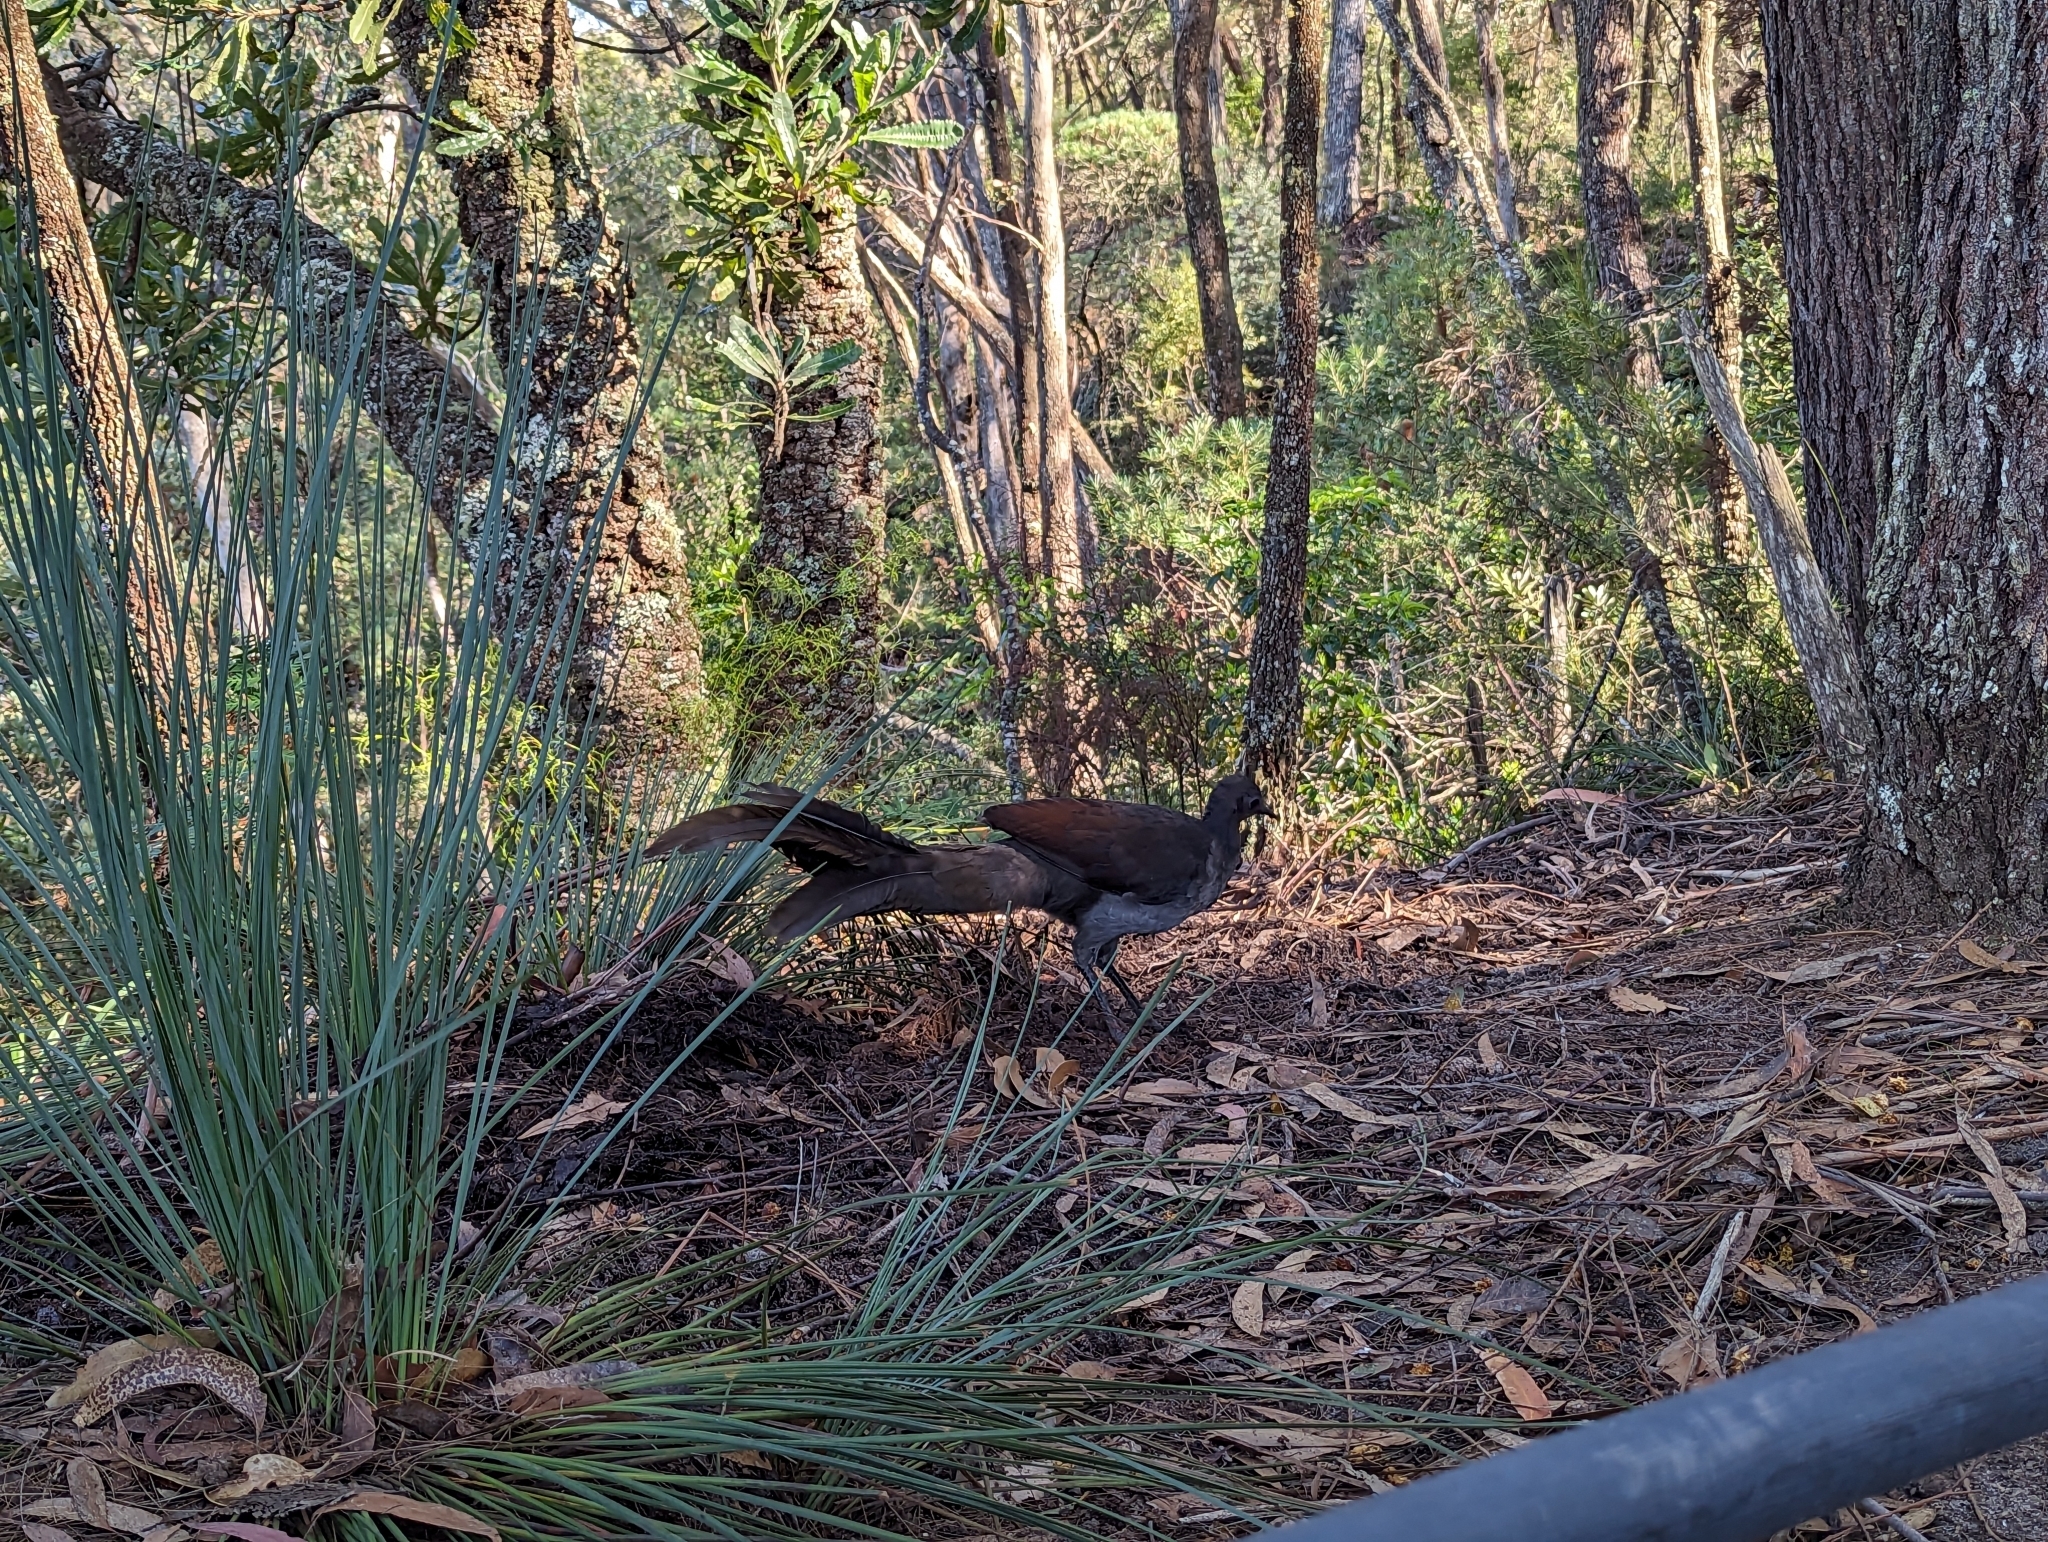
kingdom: Animalia
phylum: Chordata
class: Aves
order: Passeriformes
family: Menuridae
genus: Menura
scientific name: Menura novaehollandiae
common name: Superb lyrebird
